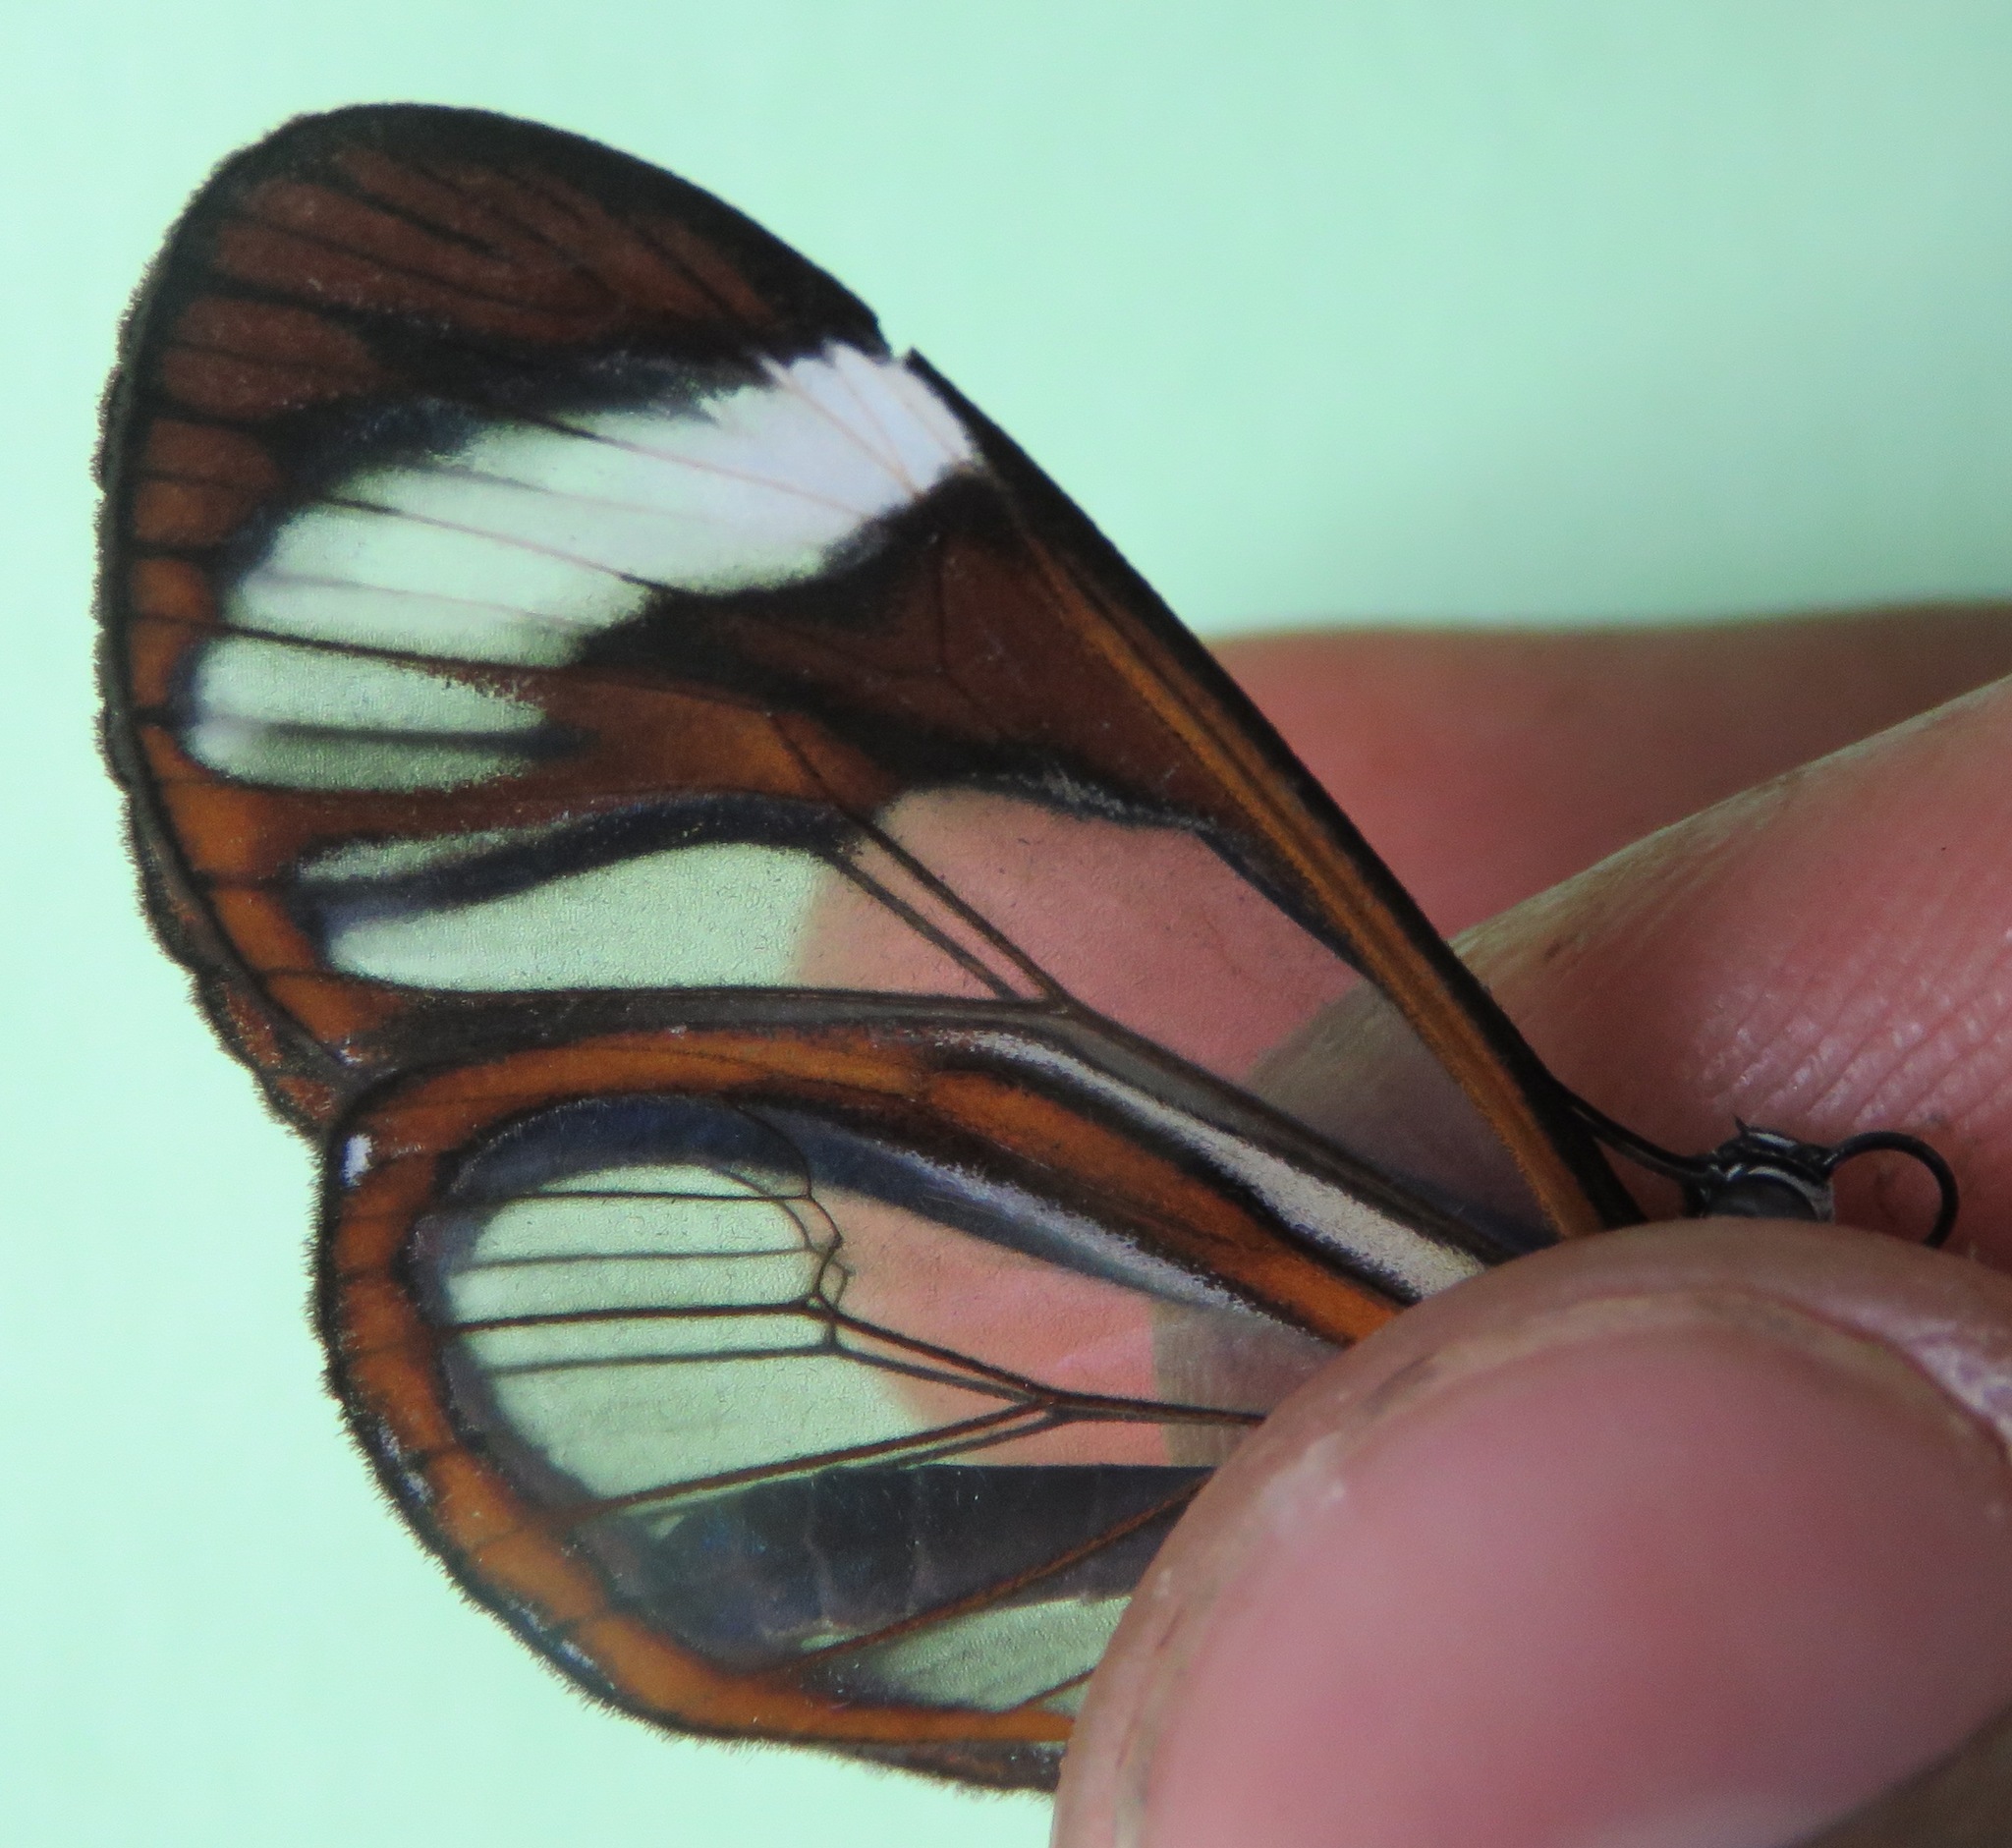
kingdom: Animalia
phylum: Arthropoda
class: Insecta
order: Lepidoptera
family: Nymphalidae
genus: Ithomia
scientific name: Ithomia patilla
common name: Patilla clearwing
